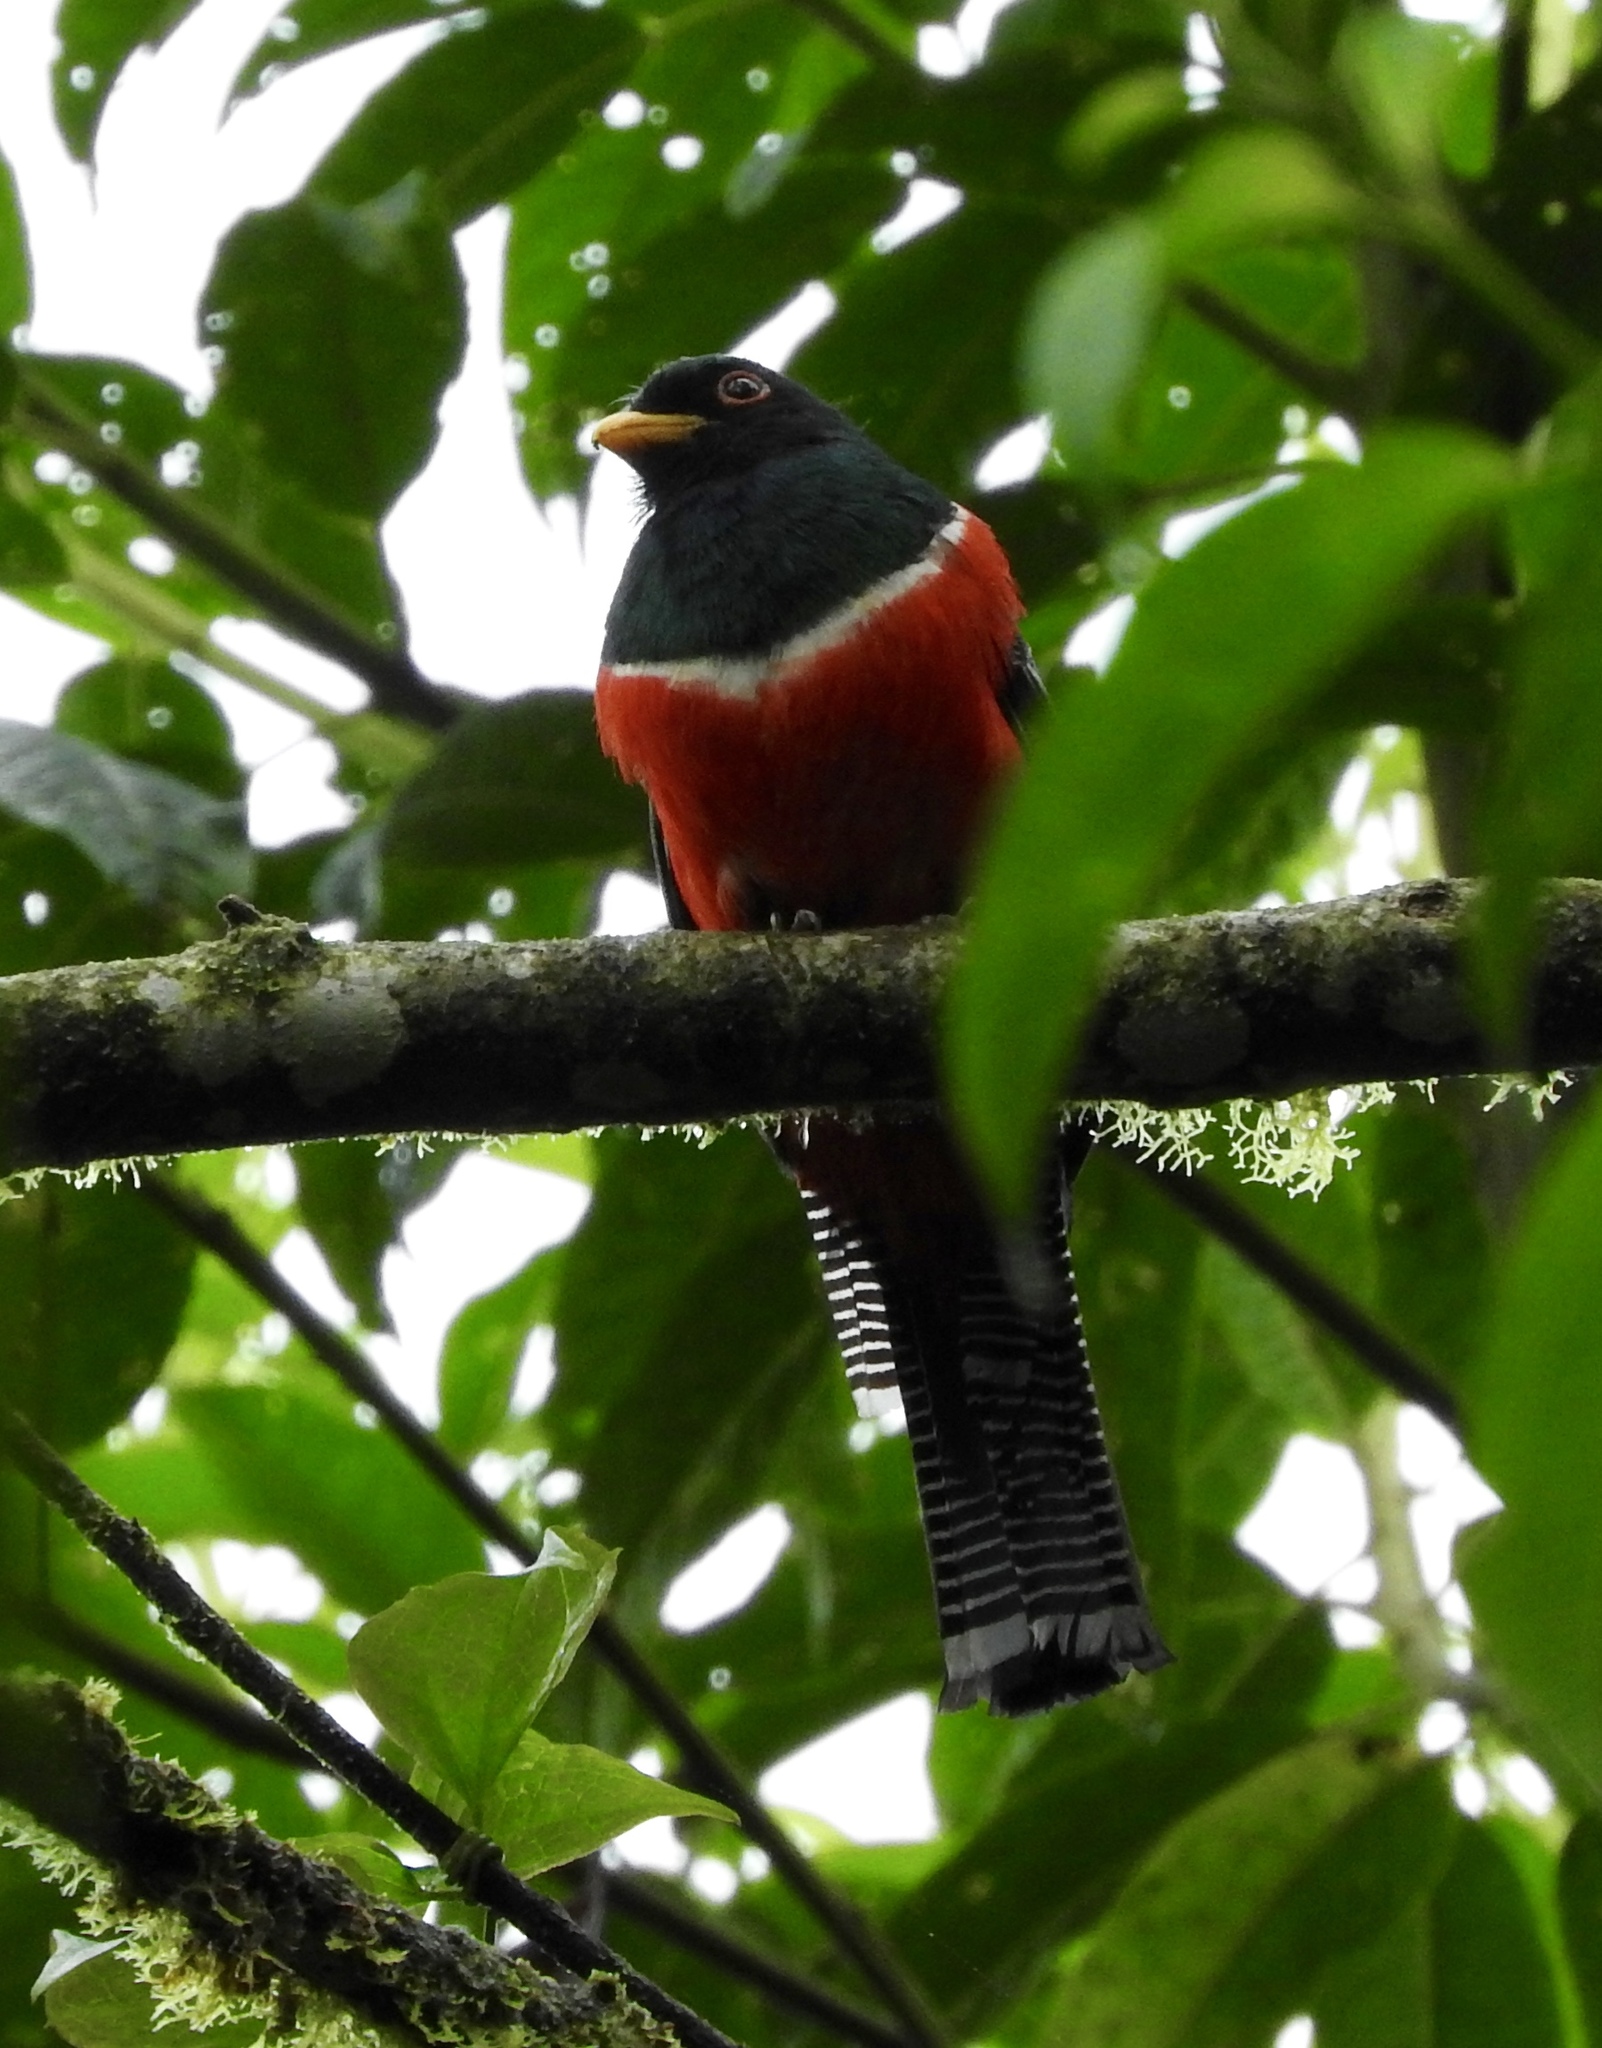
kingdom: Animalia
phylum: Chordata
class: Aves
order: Trogoniformes
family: Trogonidae
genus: Trogon
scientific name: Trogon collaris
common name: Collared trogon
